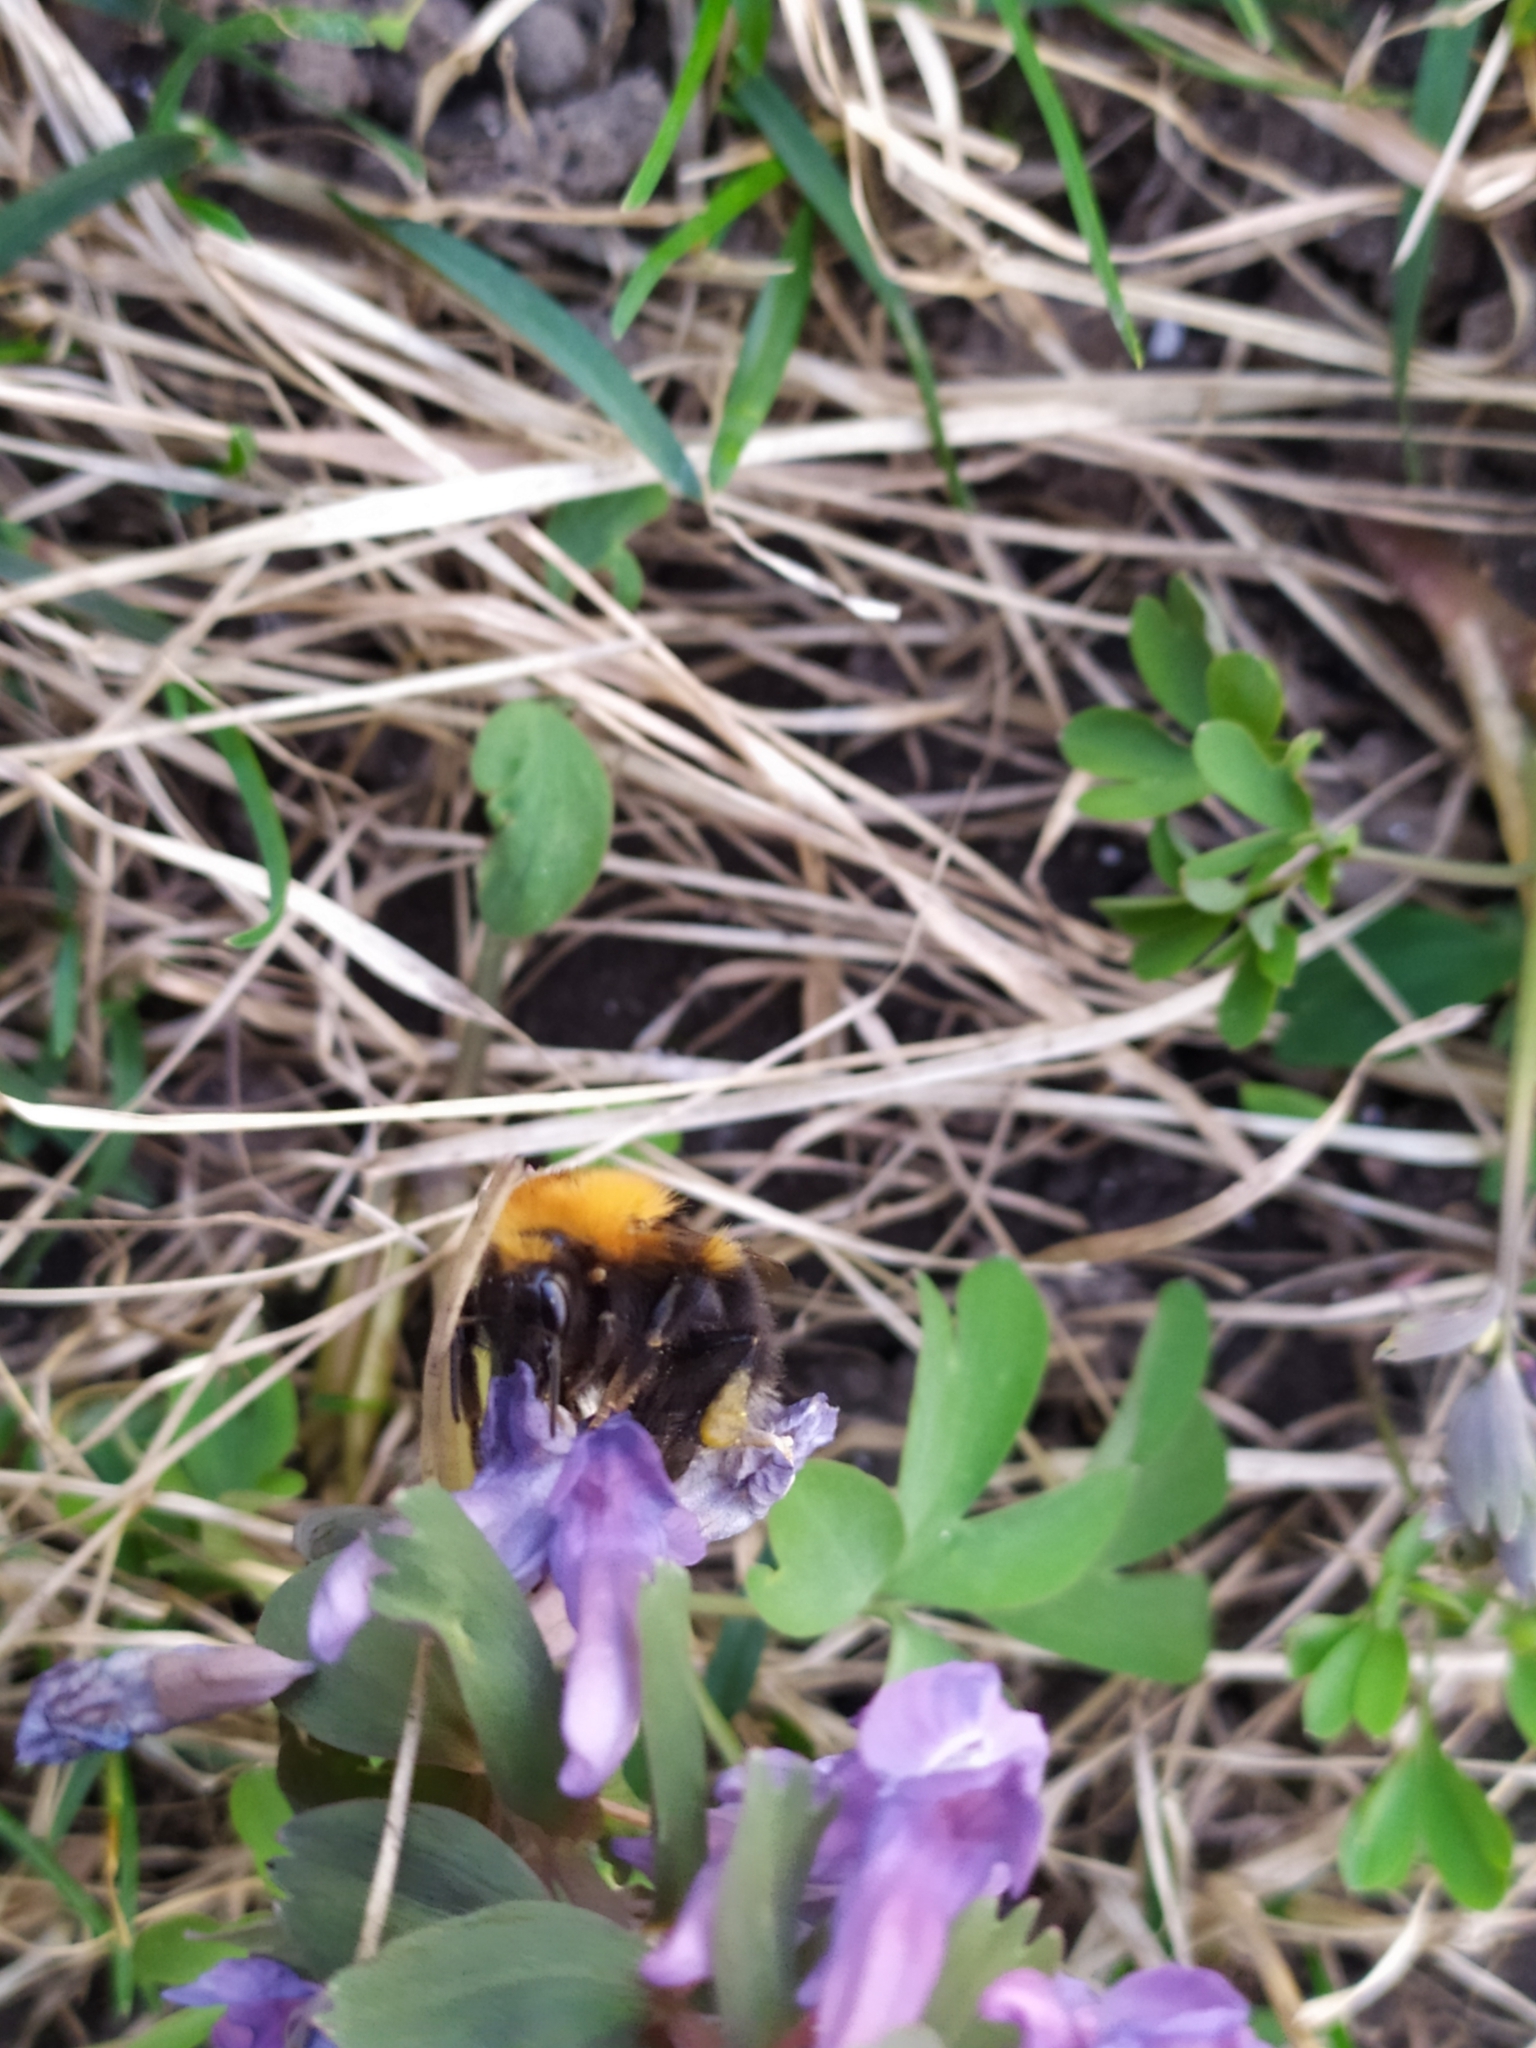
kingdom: Animalia
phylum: Arthropoda
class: Insecta
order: Hymenoptera
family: Apidae
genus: Bombus
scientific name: Bombus hypnorum
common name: New garden bumblebee
